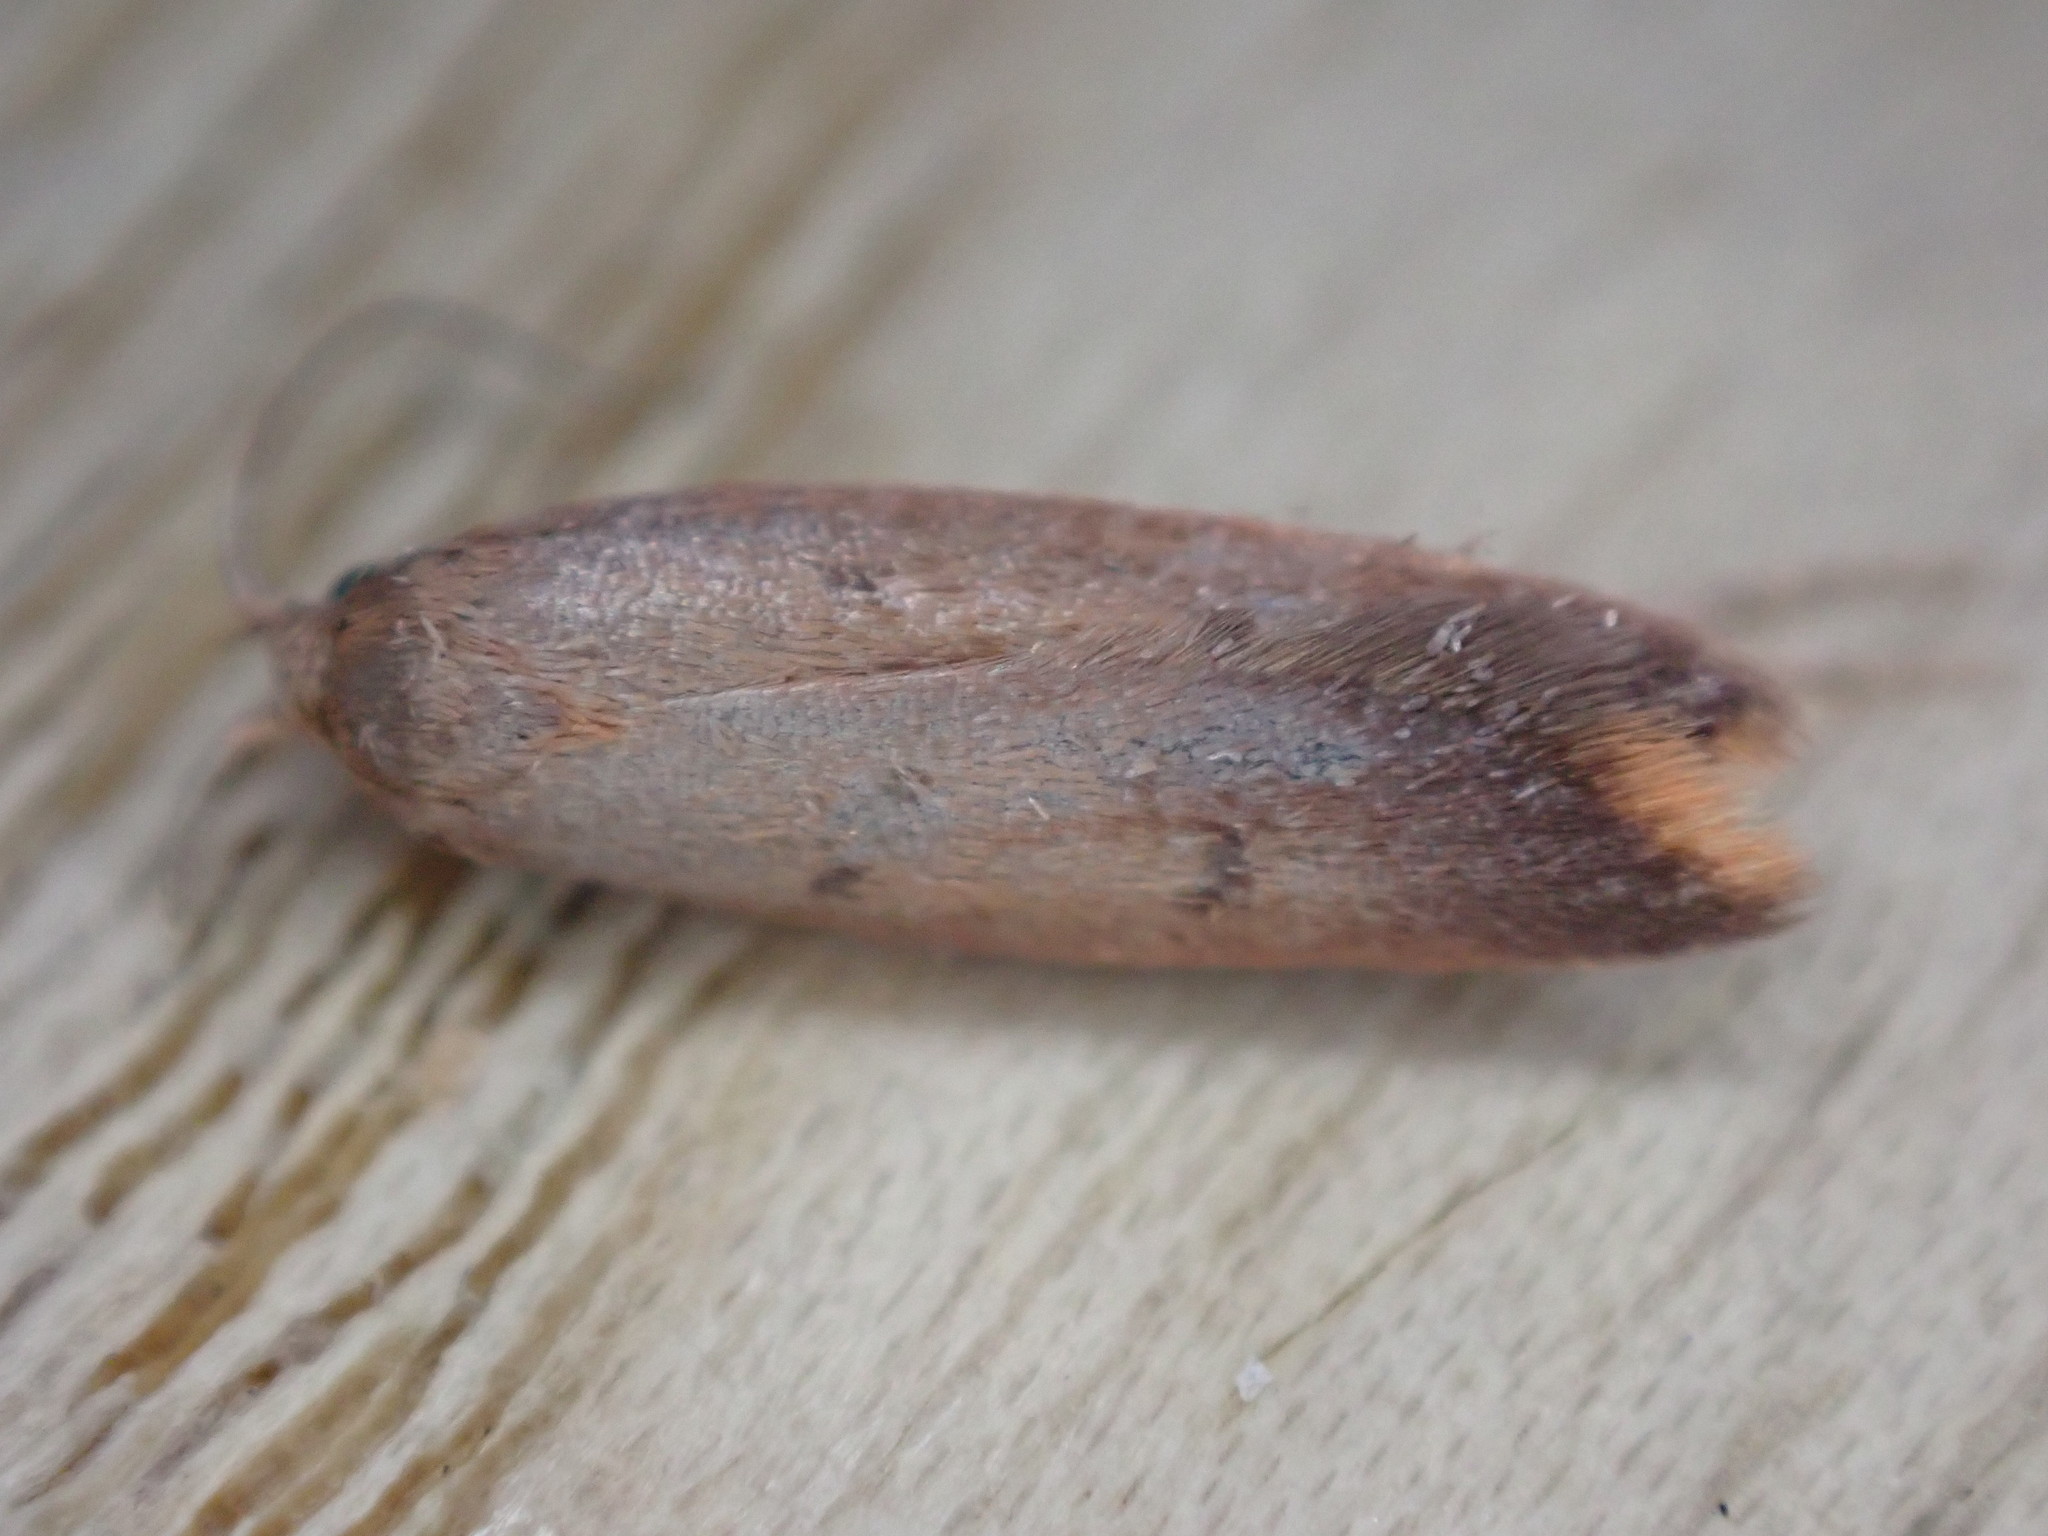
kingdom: Animalia
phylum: Arthropoda
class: Insecta
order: Lepidoptera
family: Oecophoridae
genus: Tachystola
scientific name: Tachystola acroxantha
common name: Ruddy streak
